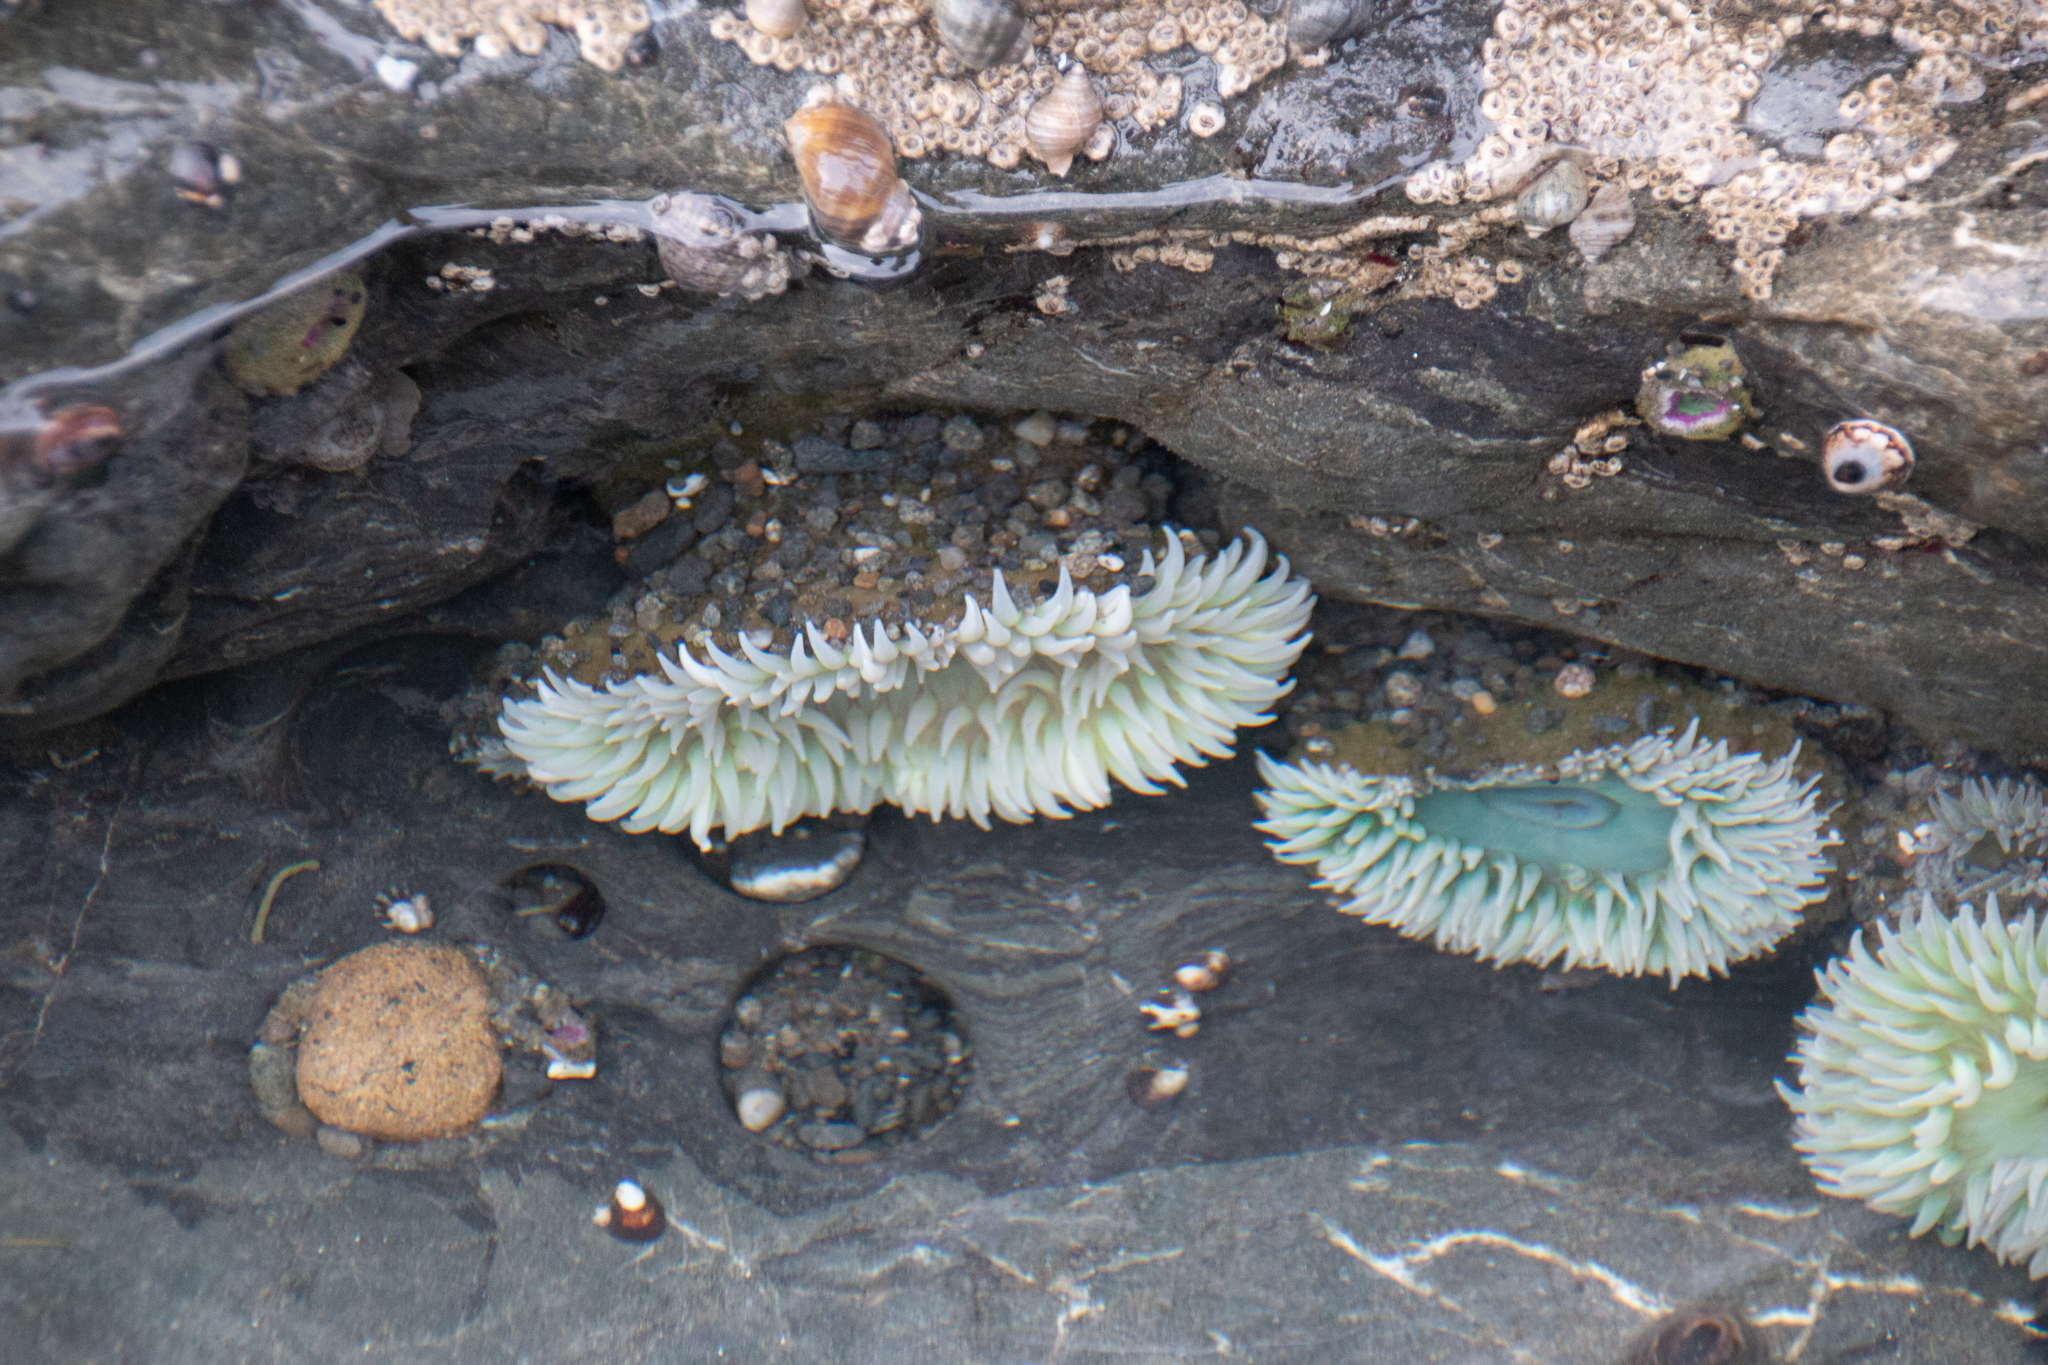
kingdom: Animalia
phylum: Cnidaria
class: Anthozoa
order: Actiniaria
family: Actiniidae
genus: Anthopleura
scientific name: Anthopleura xanthogrammica
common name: Giant green anemone
